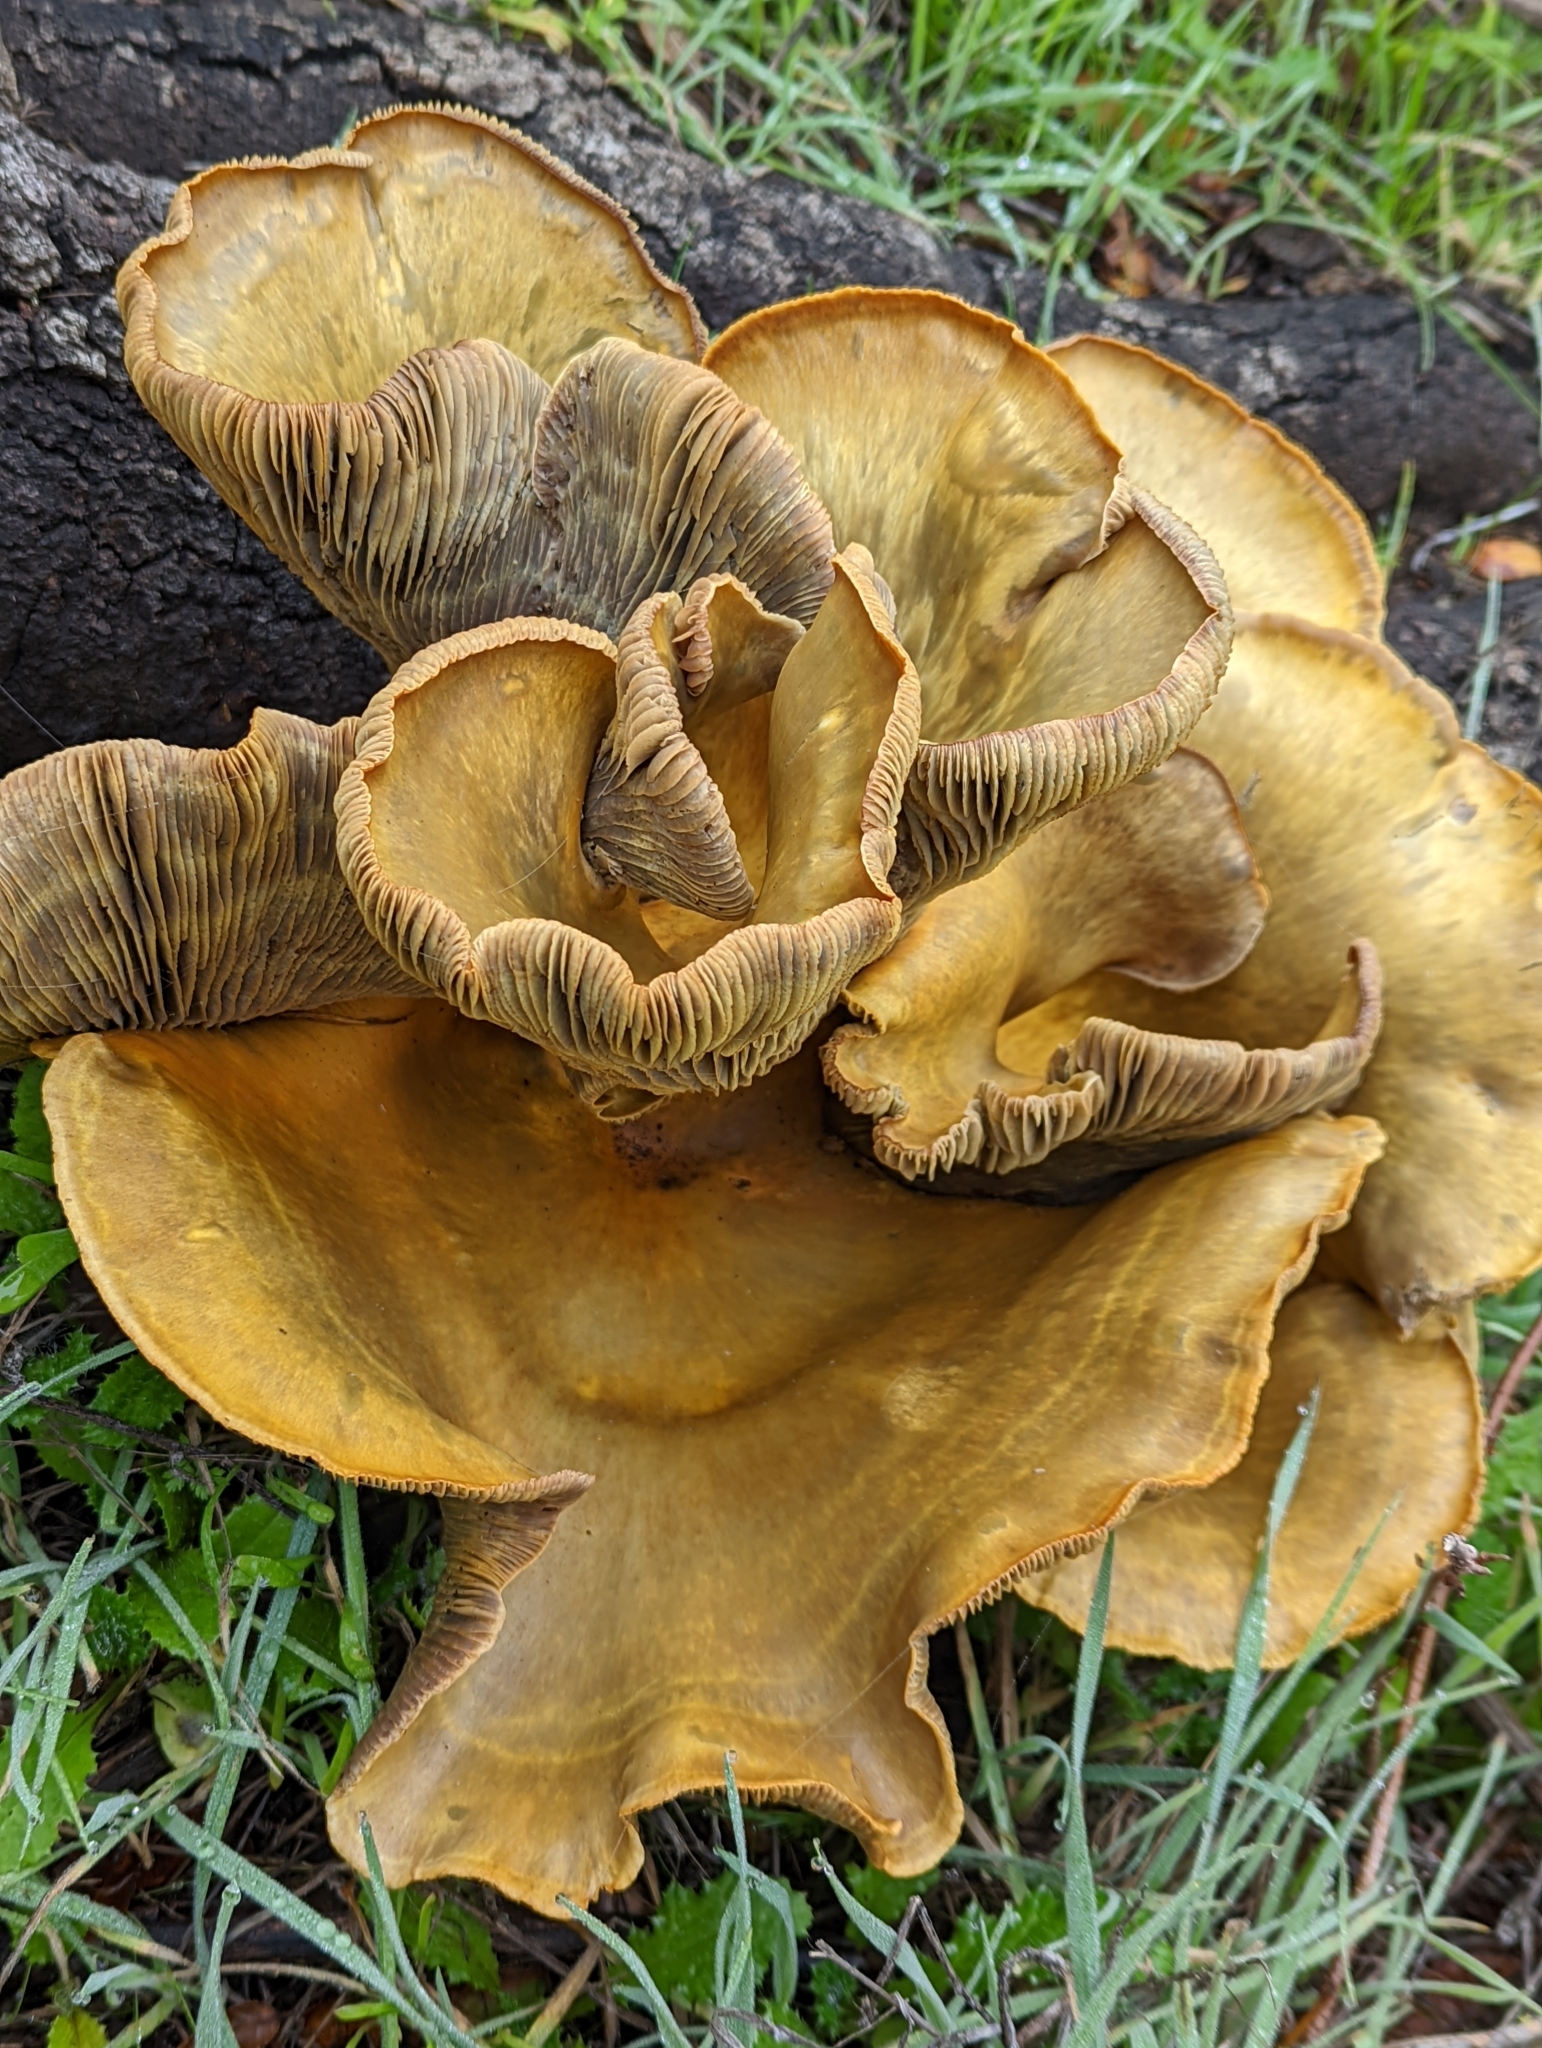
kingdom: Fungi
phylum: Basidiomycota
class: Agaricomycetes
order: Agaricales
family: Omphalotaceae
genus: Omphalotus
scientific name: Omphalotus olivascens
